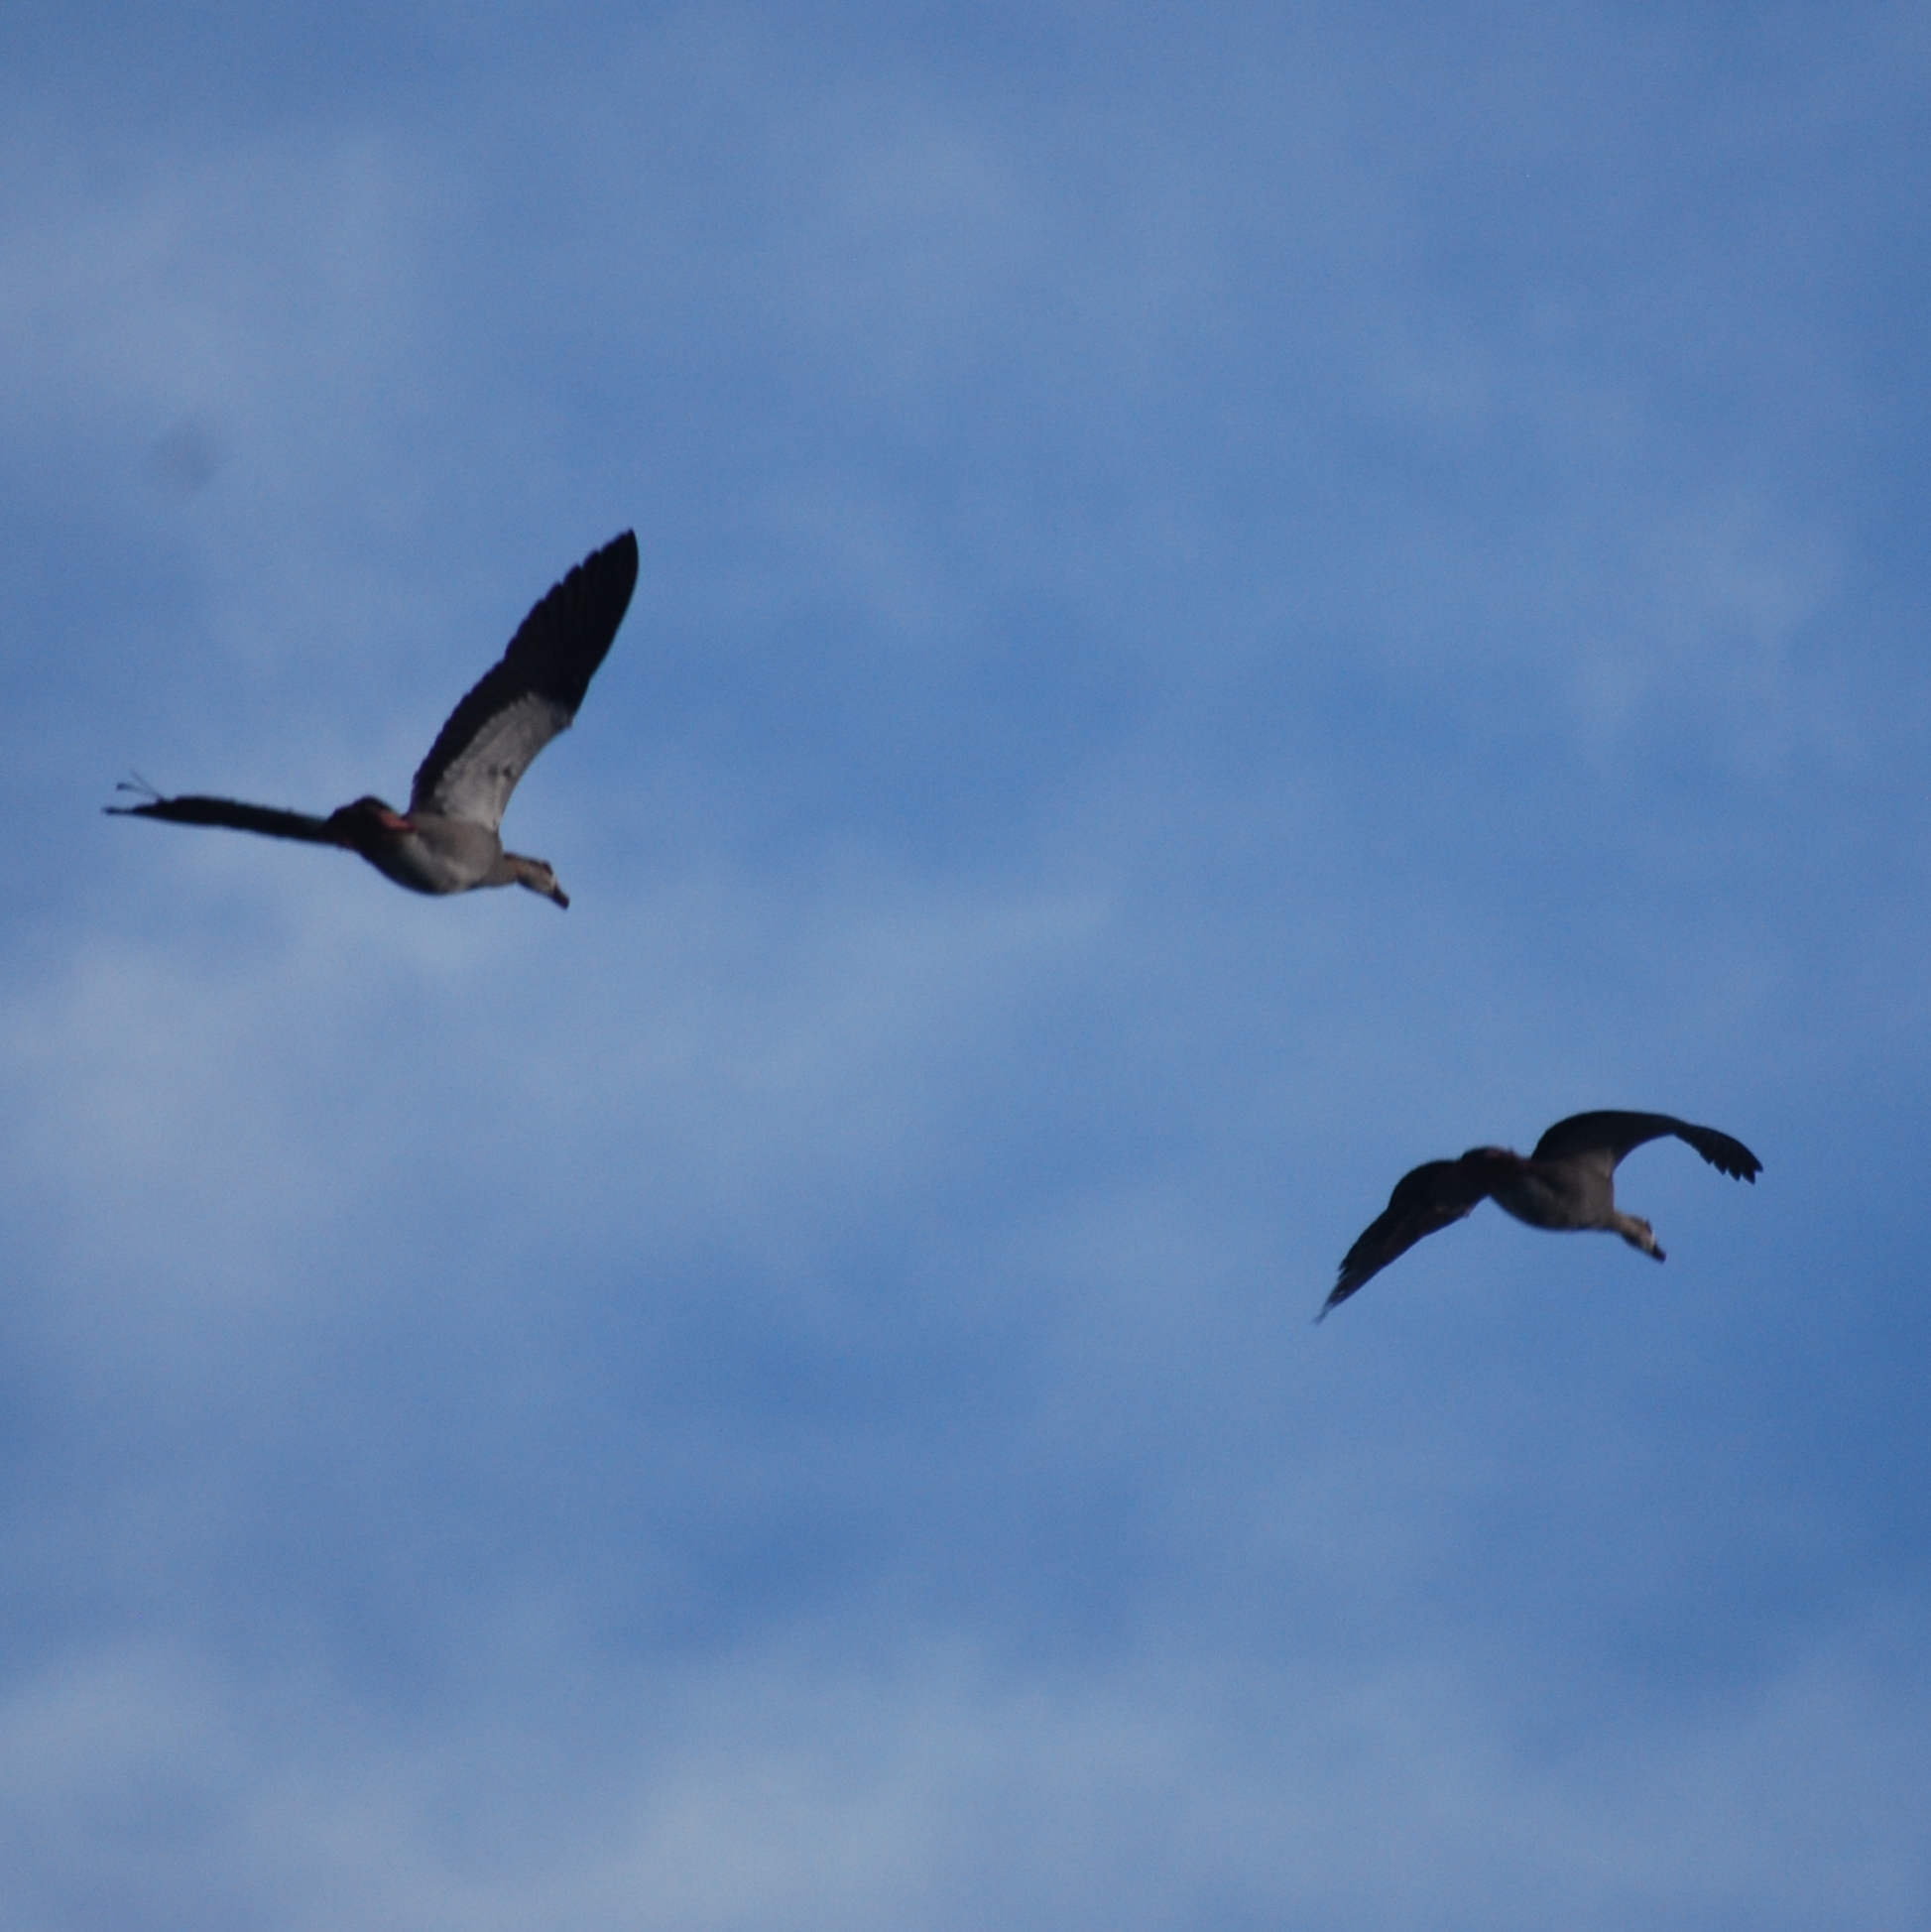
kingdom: Animalia
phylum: Chordata
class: Aves
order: Anseriformes
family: Anatidae
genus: Alopochen
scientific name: Alopochen aegyptiaca
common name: Egyptian goose
